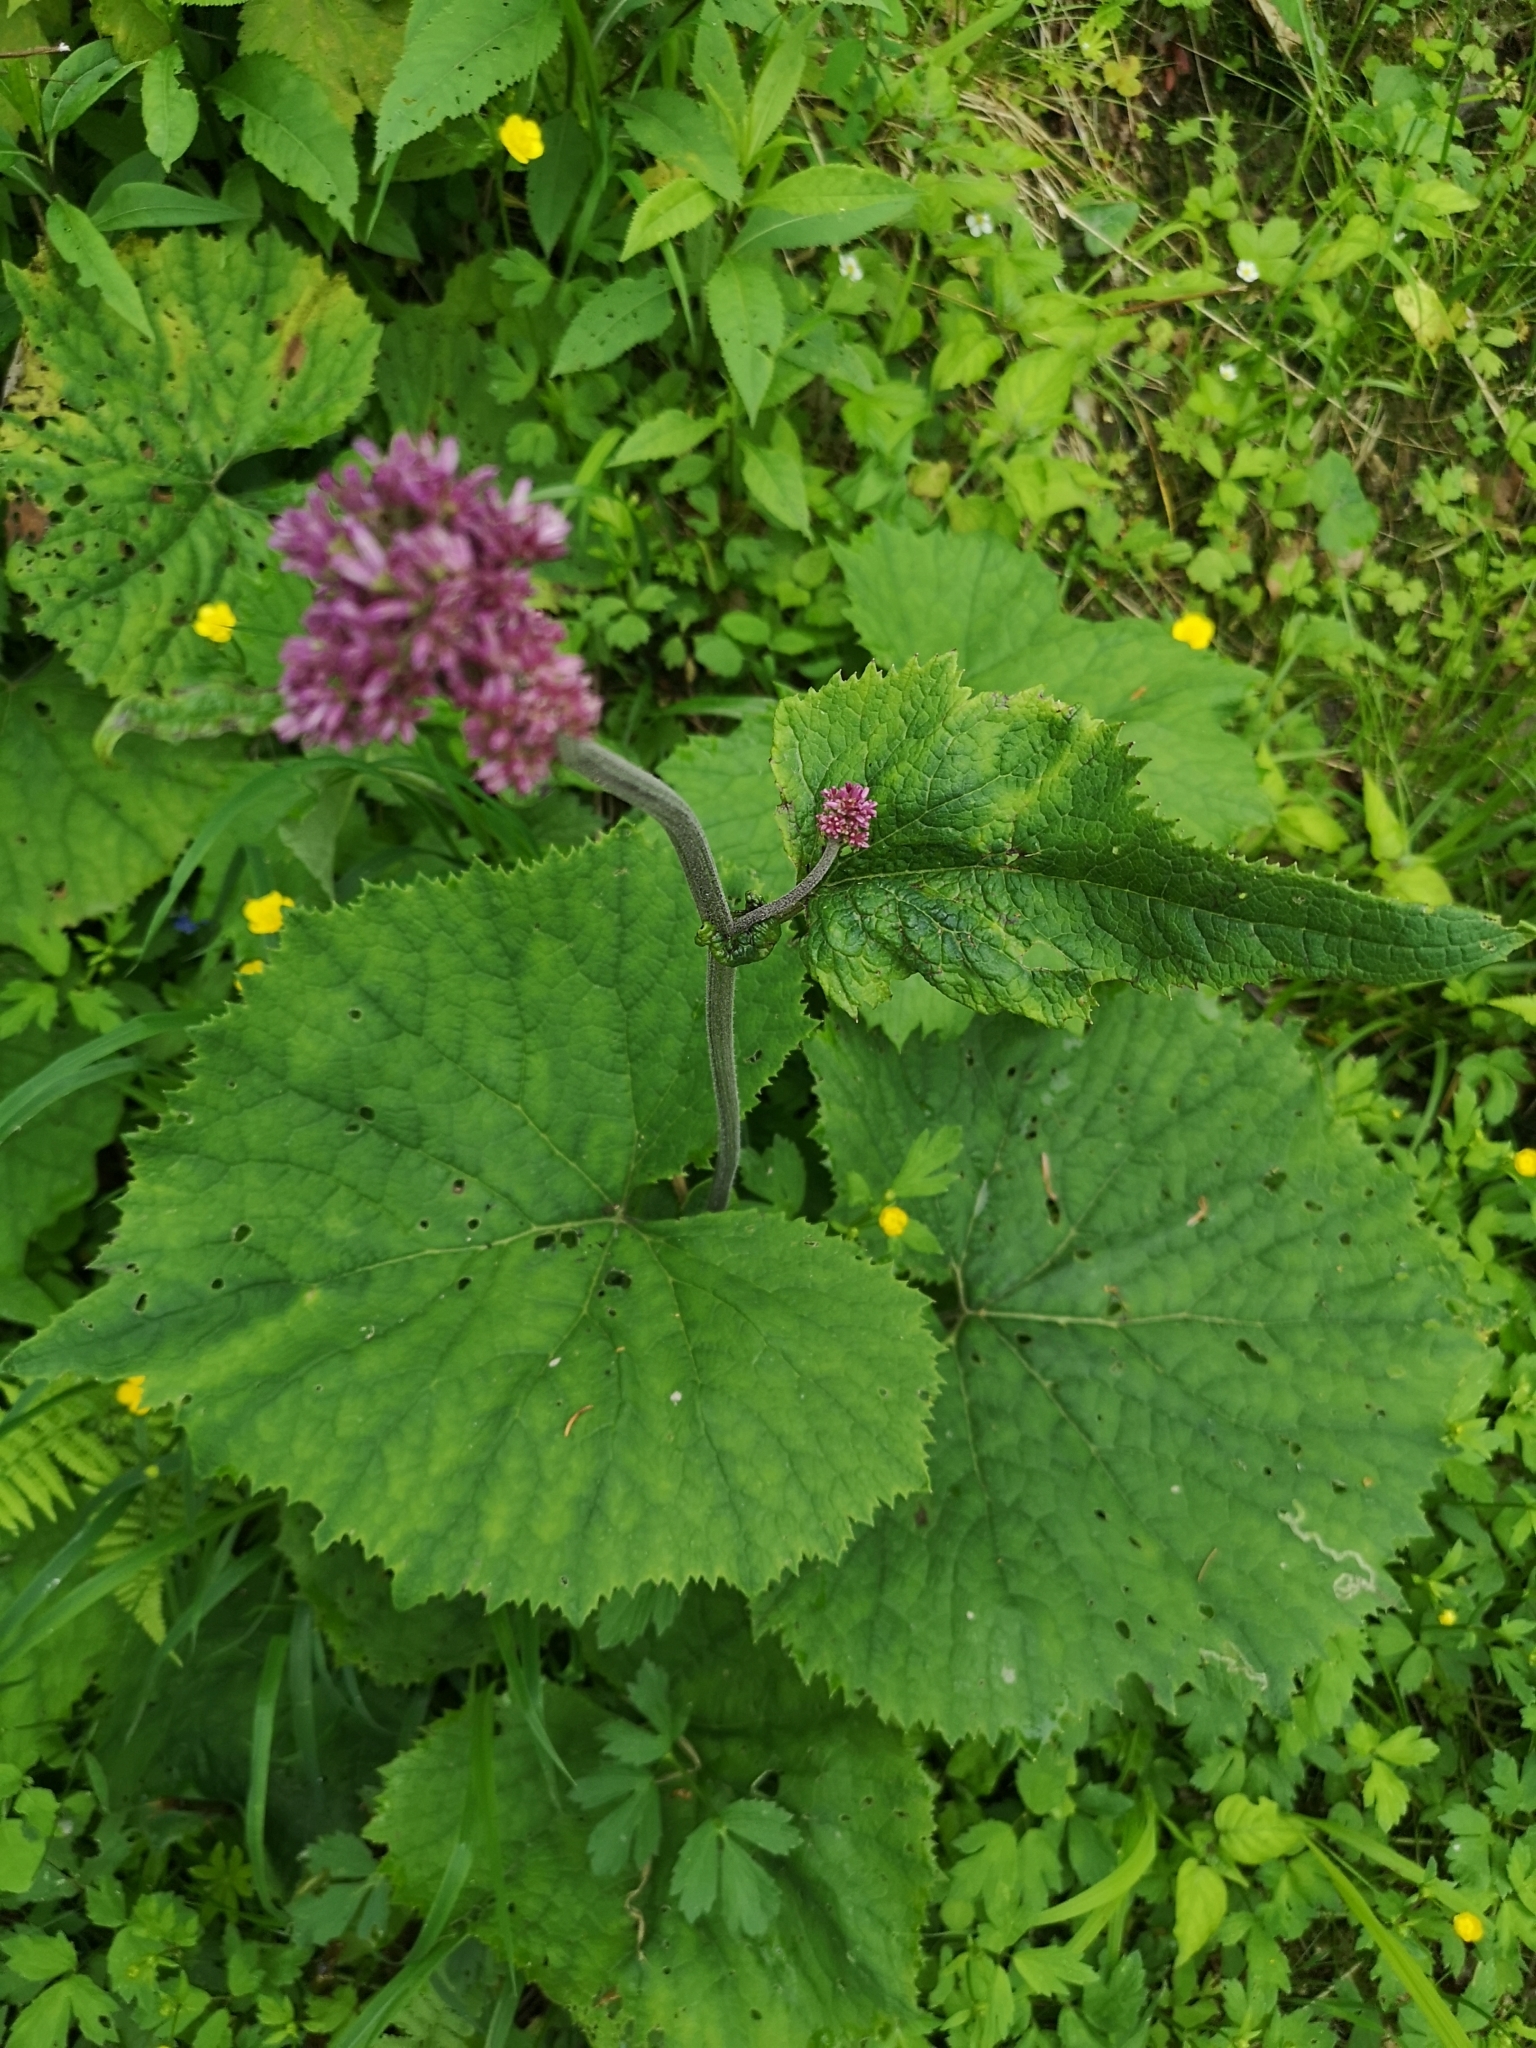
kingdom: Plantae
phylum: Tracheophyta
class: Magnoliopsida
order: Asterales
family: Asteraceae
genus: Adenostyles
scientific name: Adenostyles alliariae
